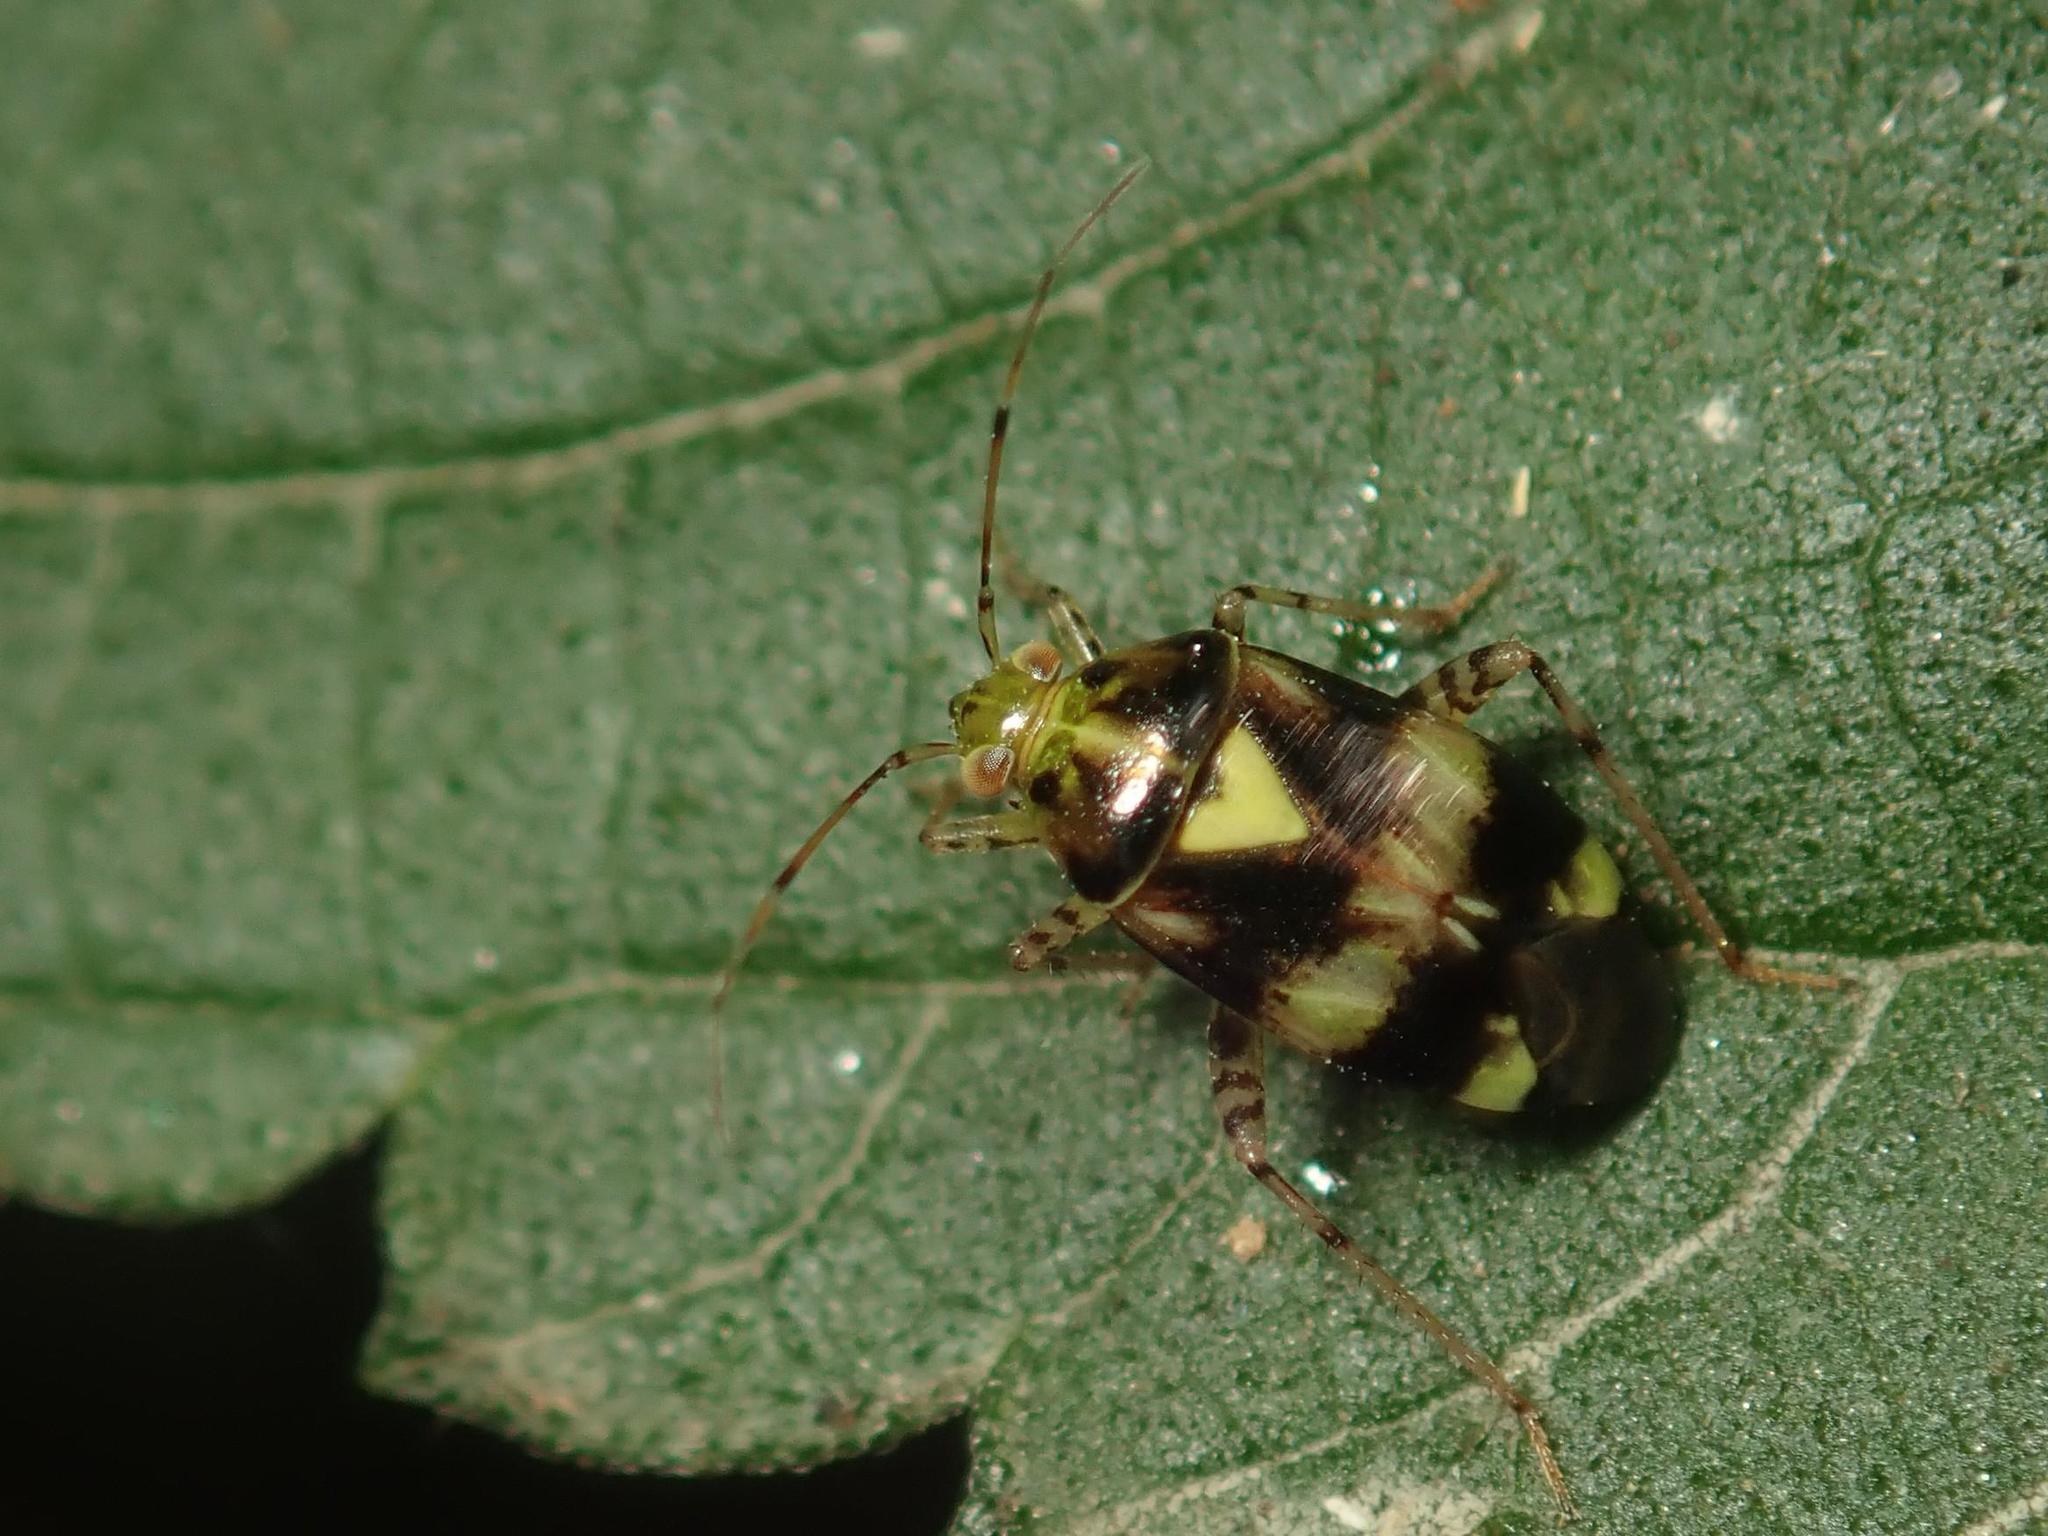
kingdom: Animalia
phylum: Arthropoda
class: Insecta
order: Hemiptera
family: Miridae
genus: Liocoris
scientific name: Liocoris tripustulatus
